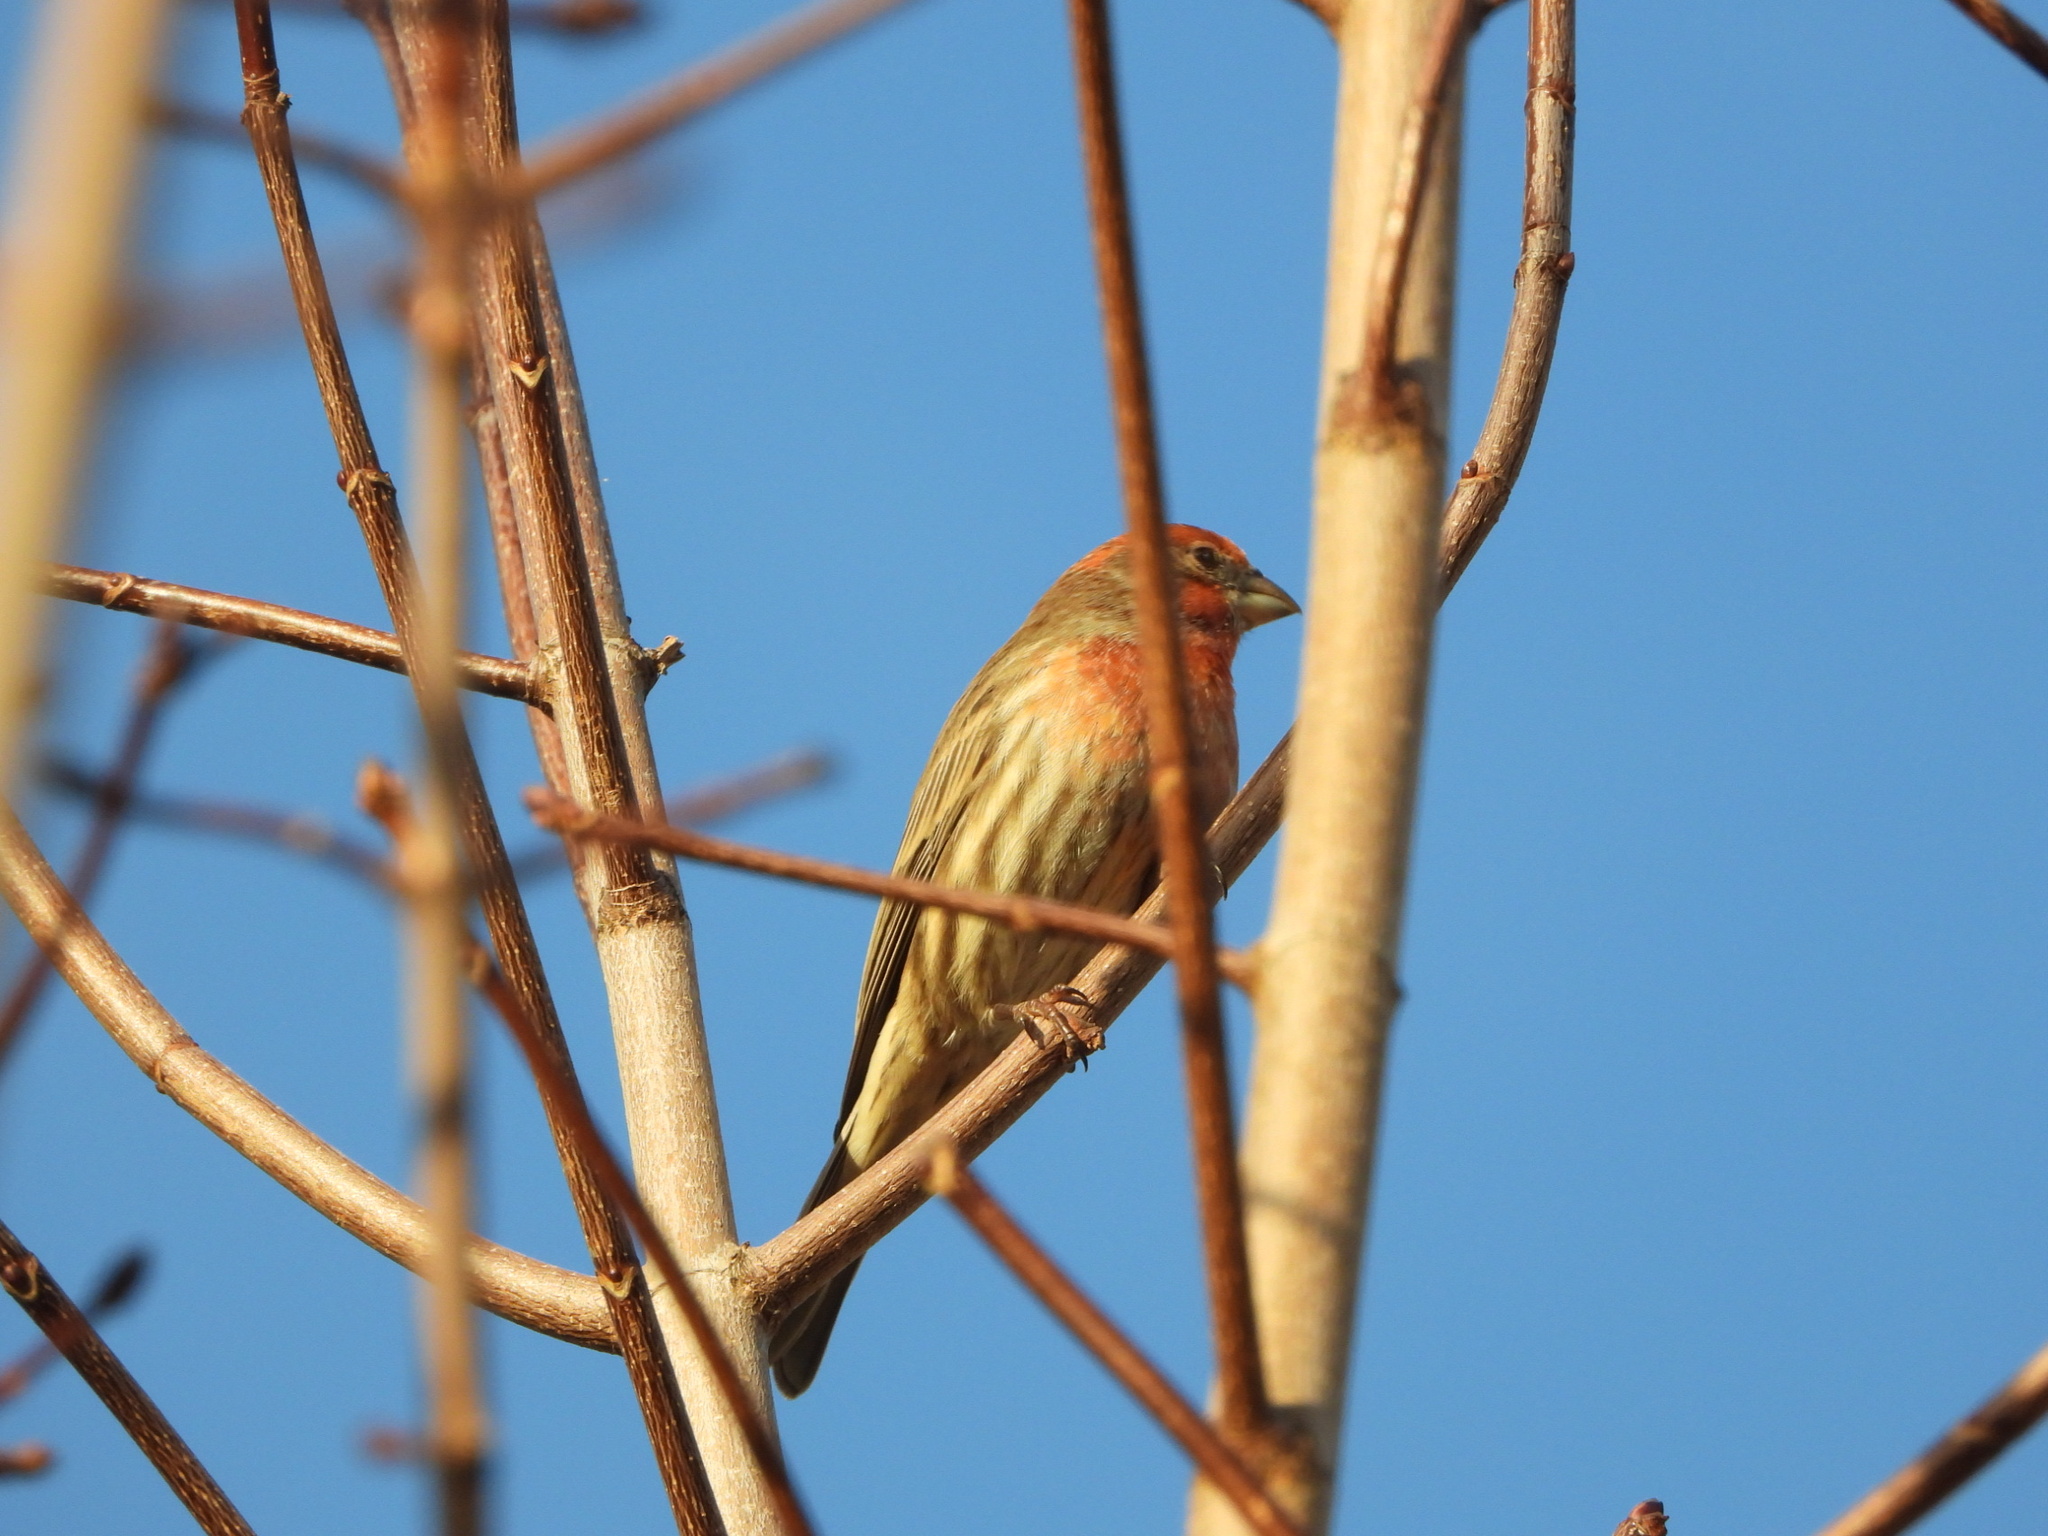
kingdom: Animalia
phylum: Chordata
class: Aves
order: Passeriformes
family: Fringillidae
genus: Haemorhous
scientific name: Haemorhous mexicanus
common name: House finch
